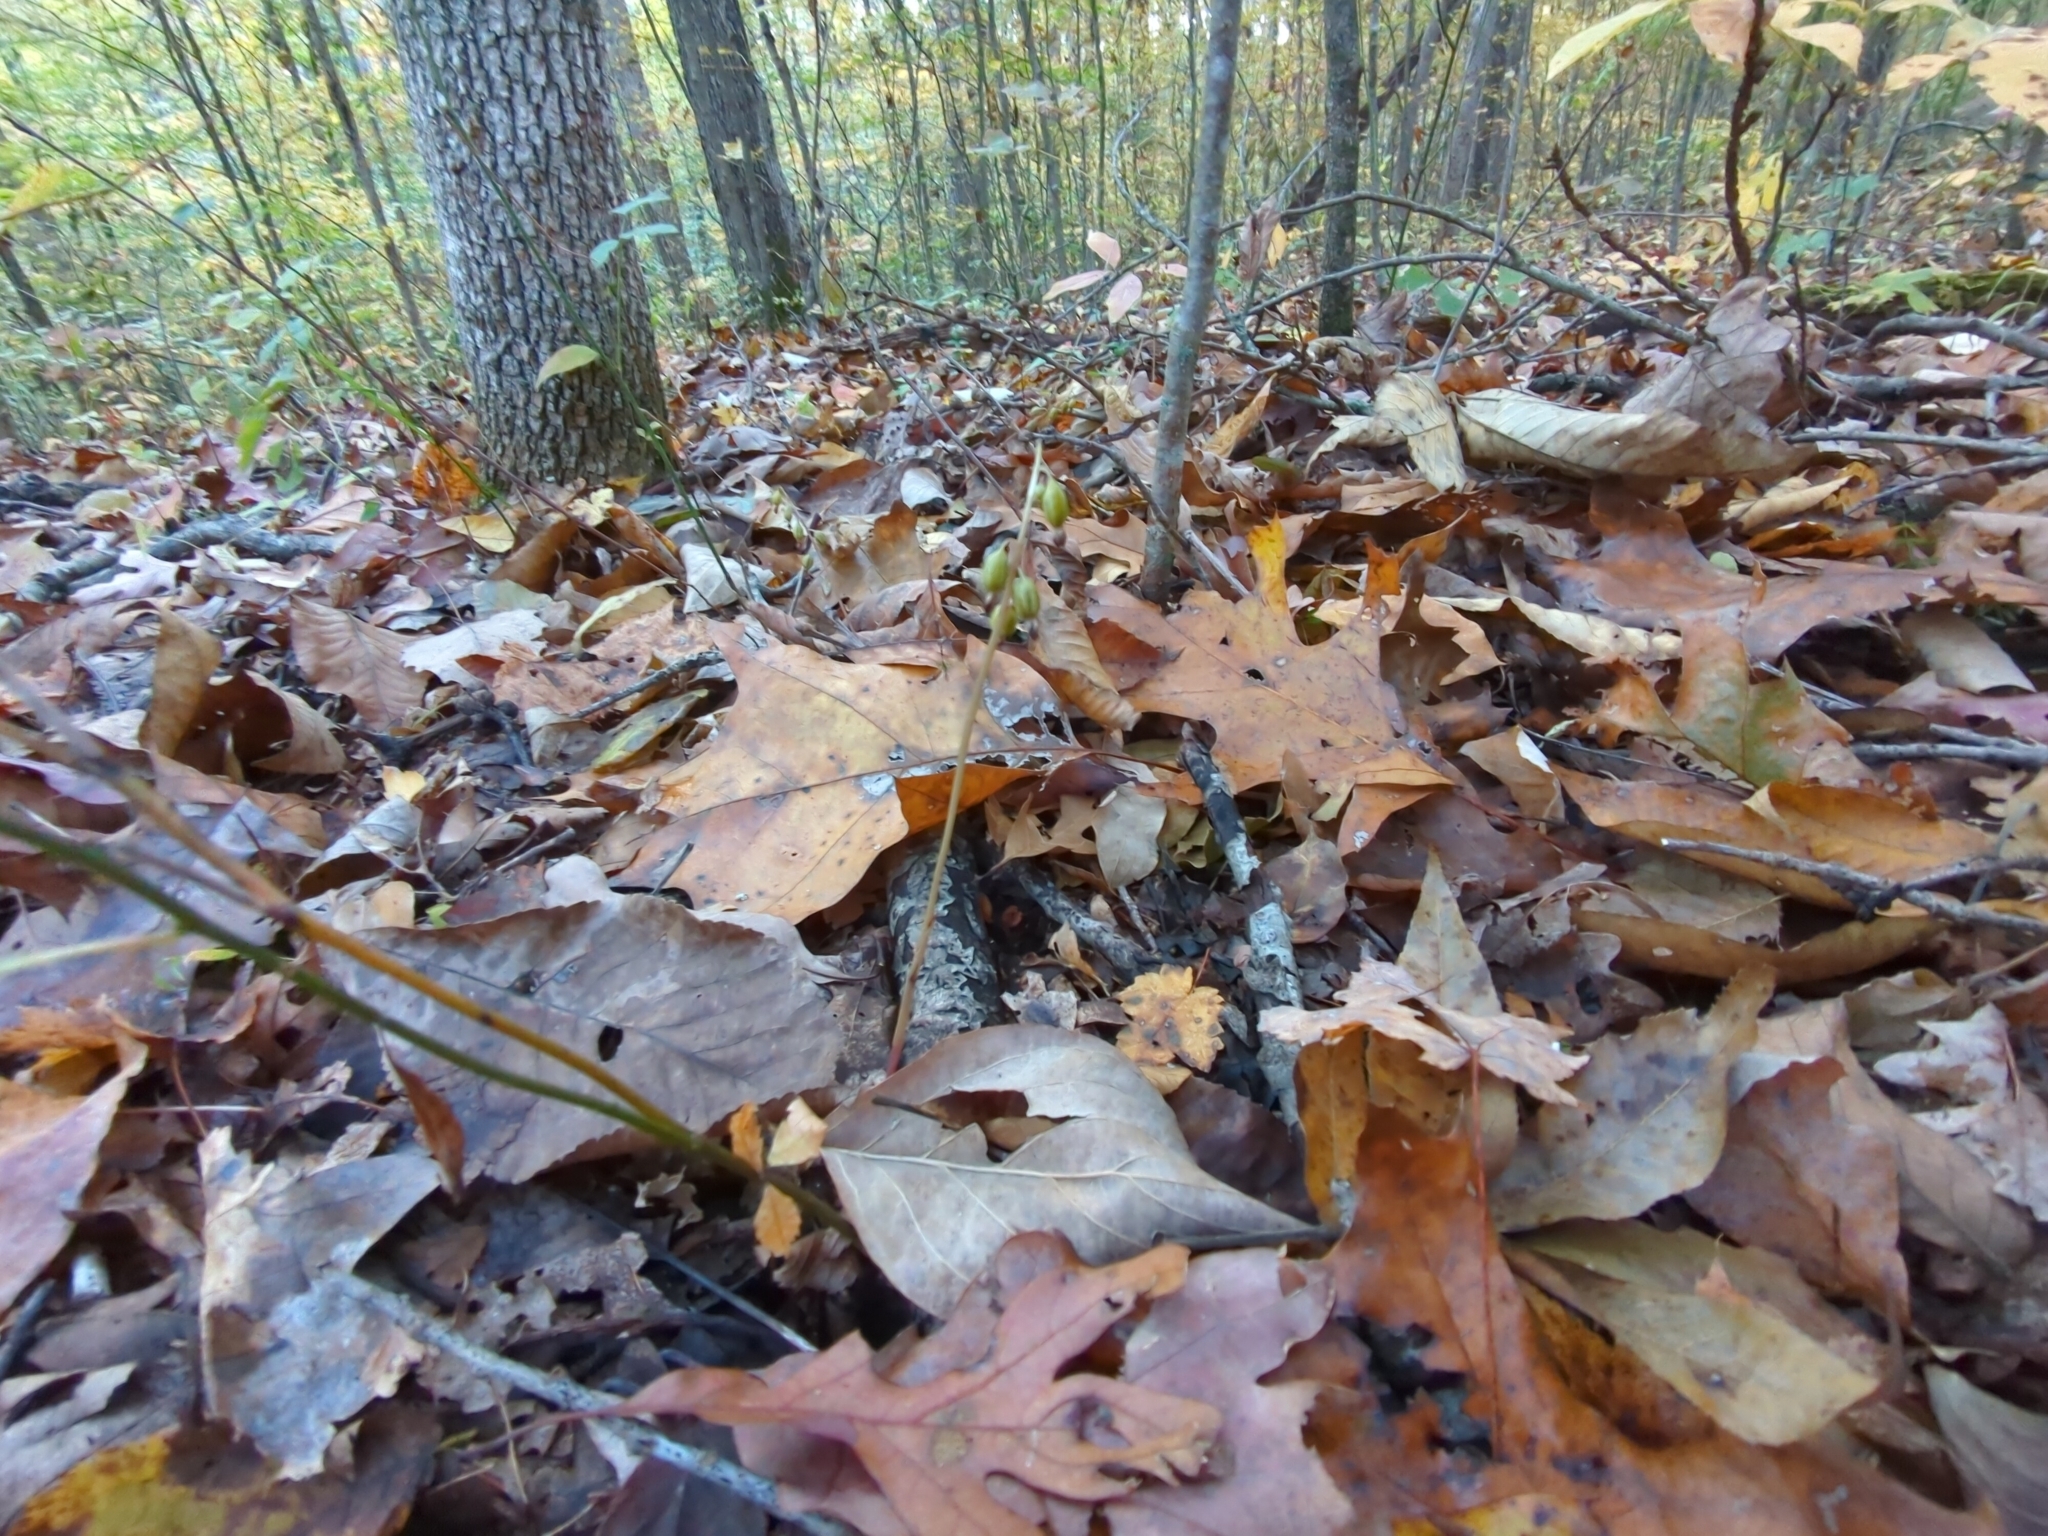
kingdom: Plantae
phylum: Tracheophyta
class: Liliopsida
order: Asparagales
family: Orchidaceae
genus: Corallorhiza
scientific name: Corallorhiza odontorhiza
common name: Autumn coralroot
